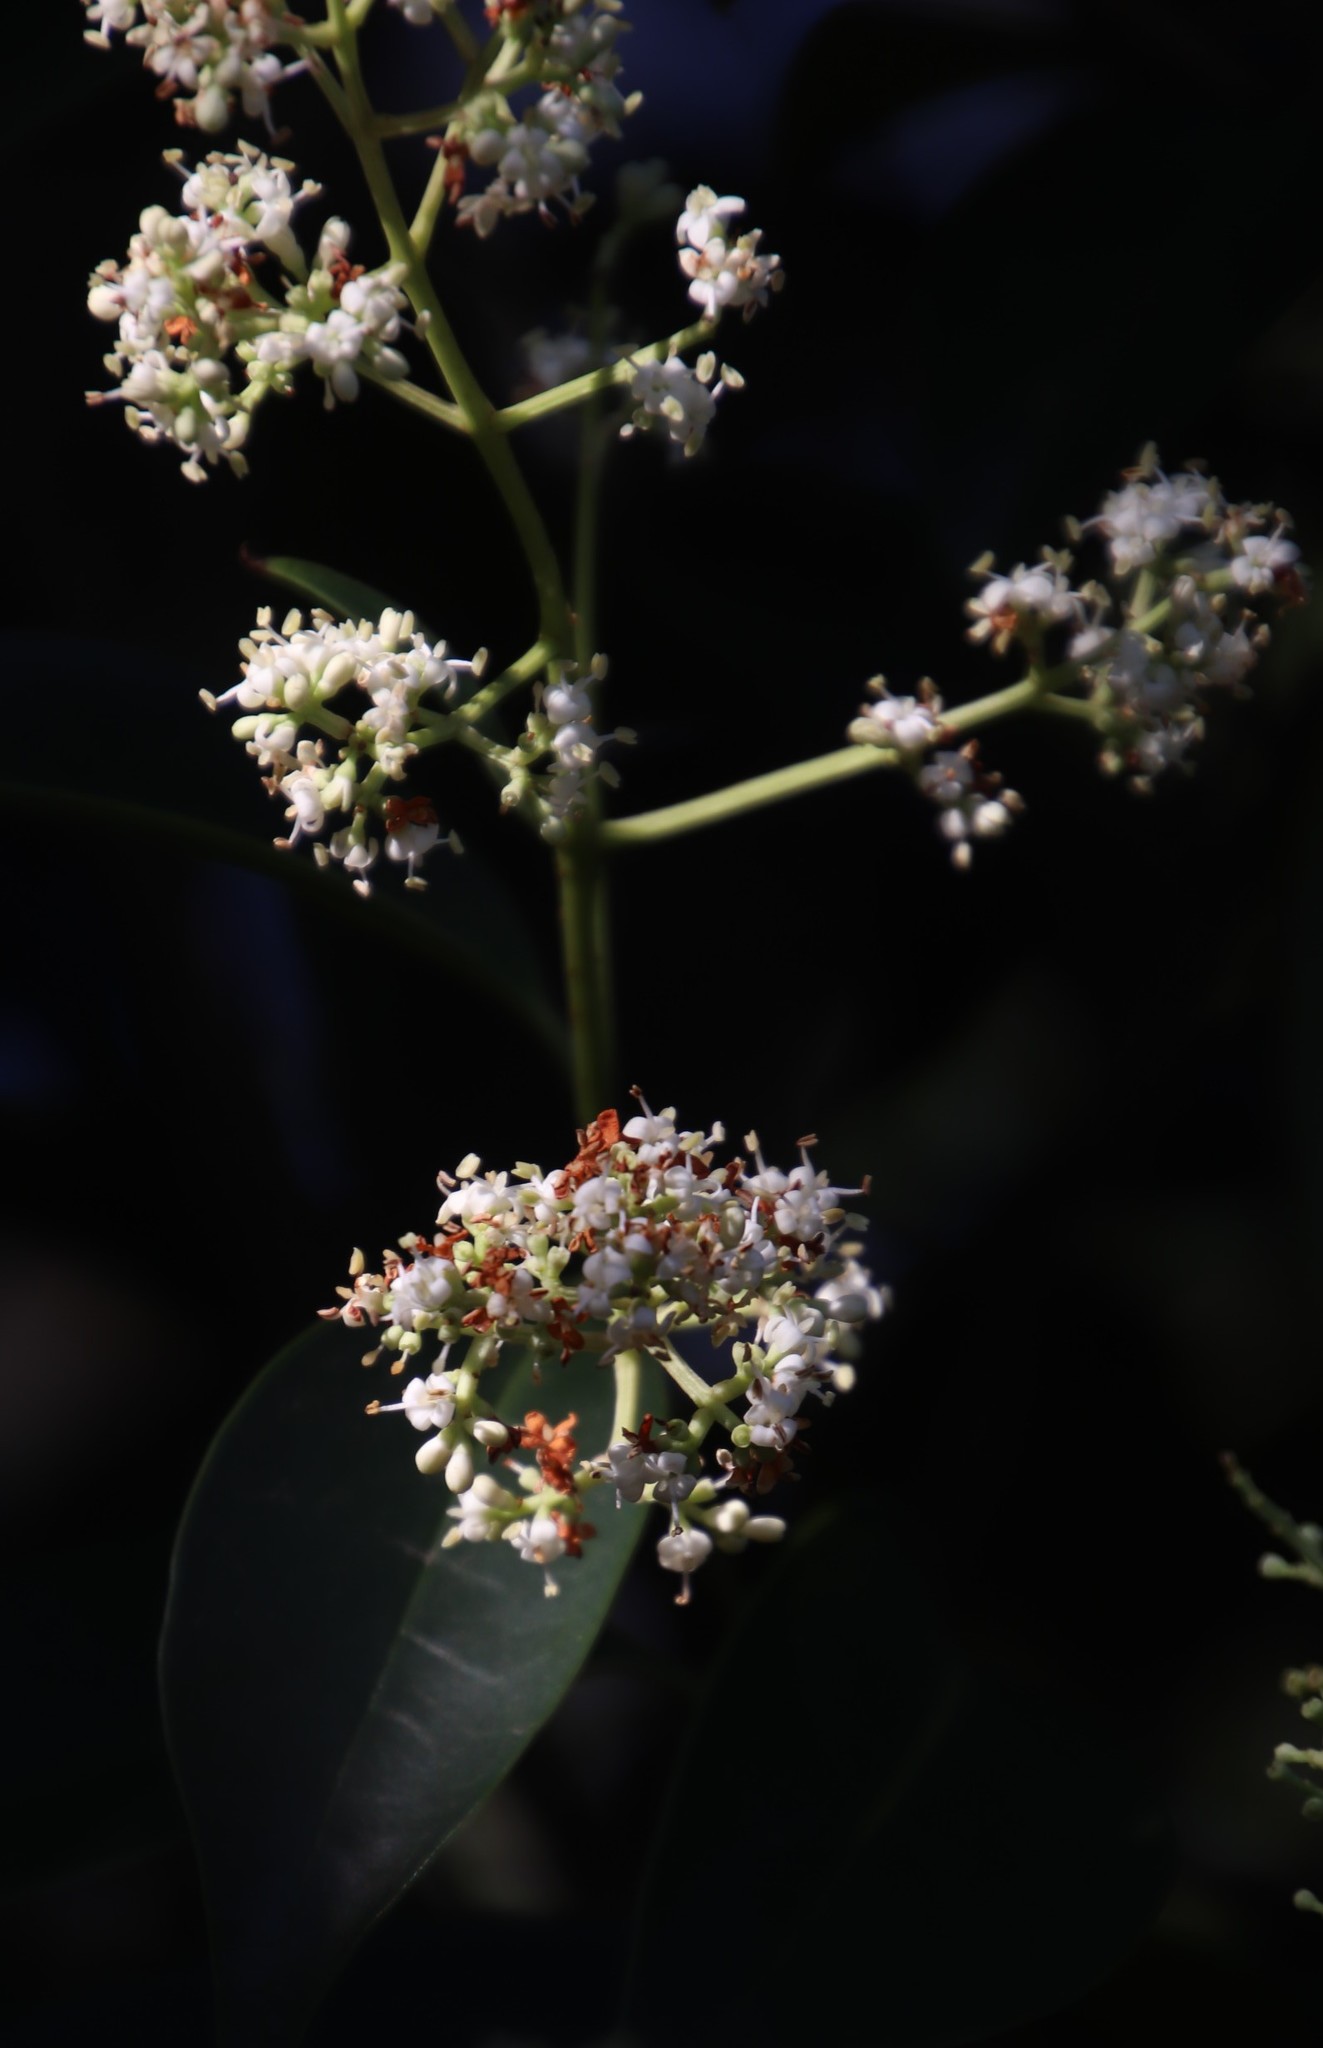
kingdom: Plantae
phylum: Tracheophyta
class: Magnoliopsida
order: Lamiales
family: Oleaceae
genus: Ligustrum
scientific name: Ligustrum lucidum
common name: Glossy privet
